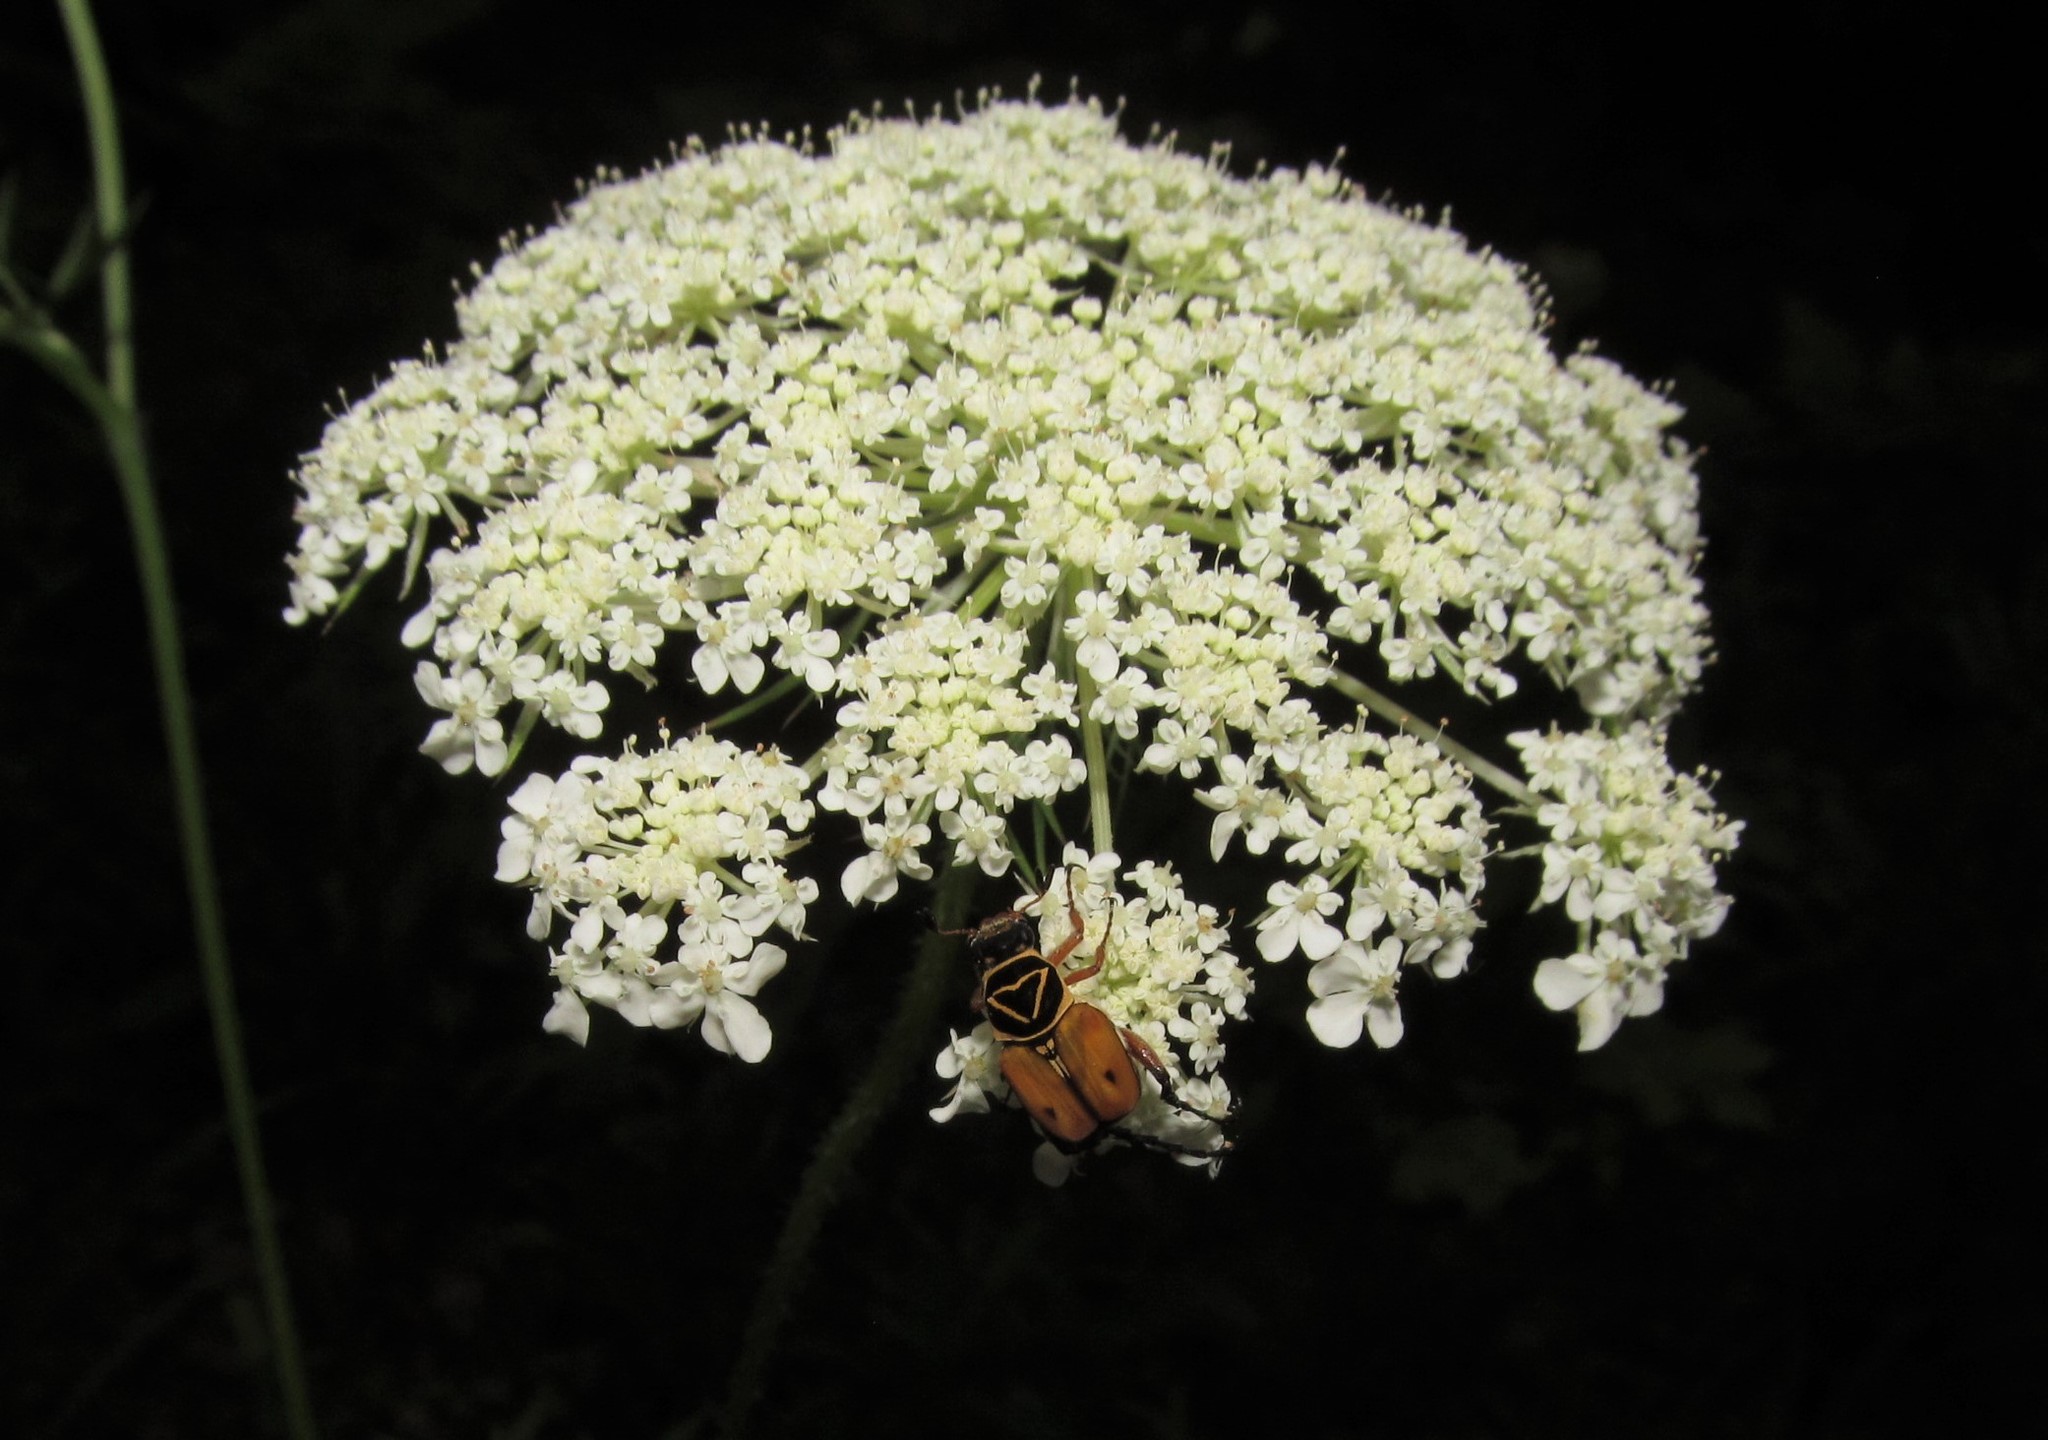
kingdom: Animalia
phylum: Arthropoda
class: Insecta
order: Coleoptera
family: Scarabaeidae
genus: Trigonopeltastes
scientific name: Trigonopeltastes delta
